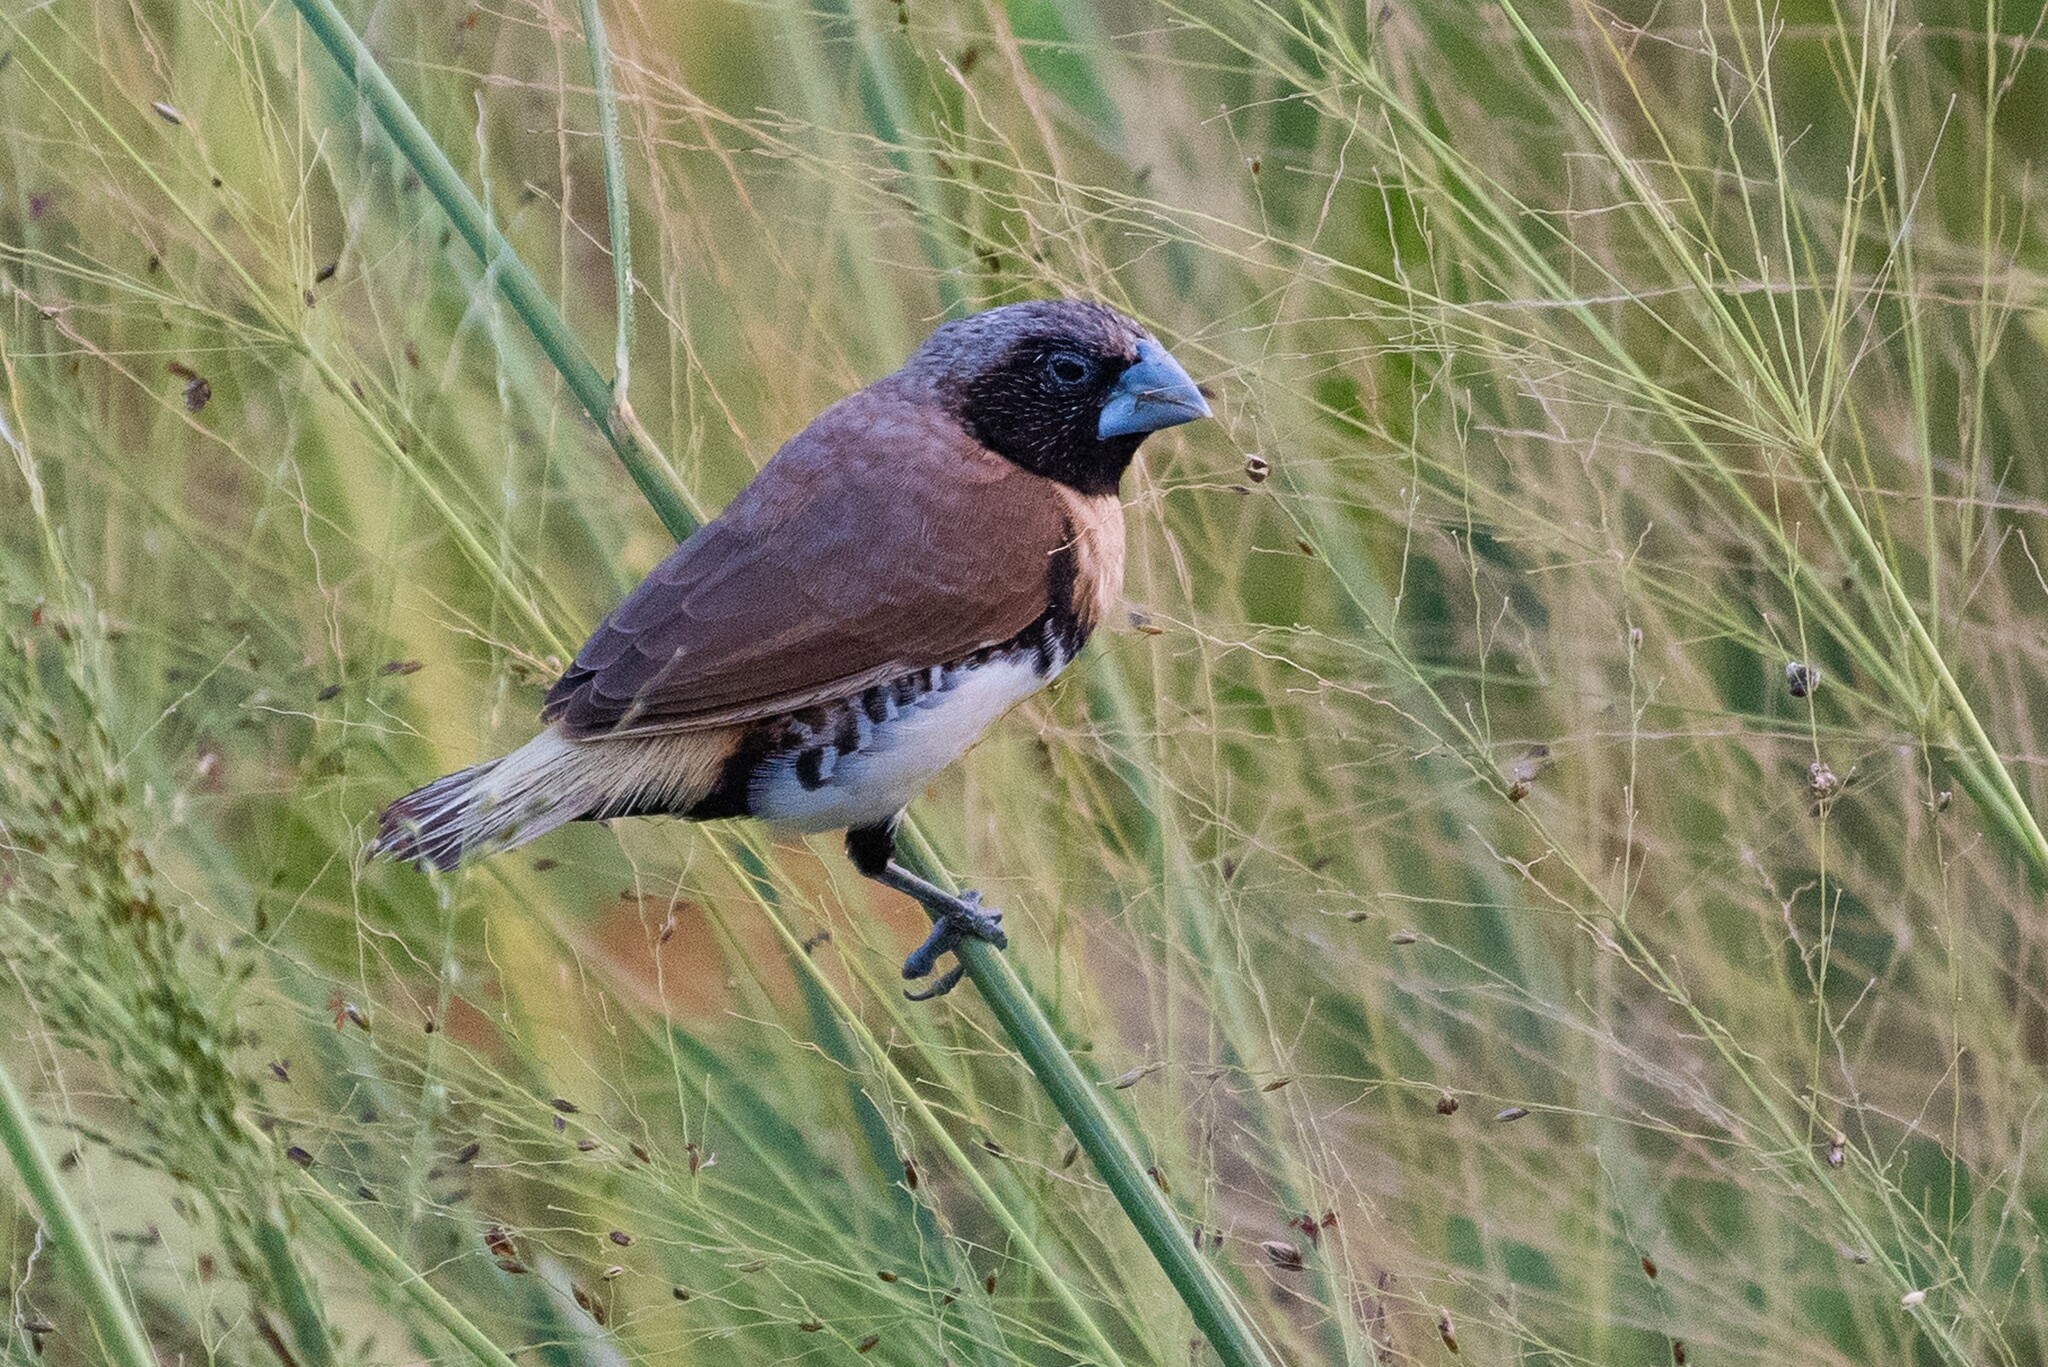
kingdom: Animalia
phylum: Chordata
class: Aves
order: Passeriformes
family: Estrildidae
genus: Lonchura
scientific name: Lonchura castaneothorax
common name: Chestnut-breasted mannikin
